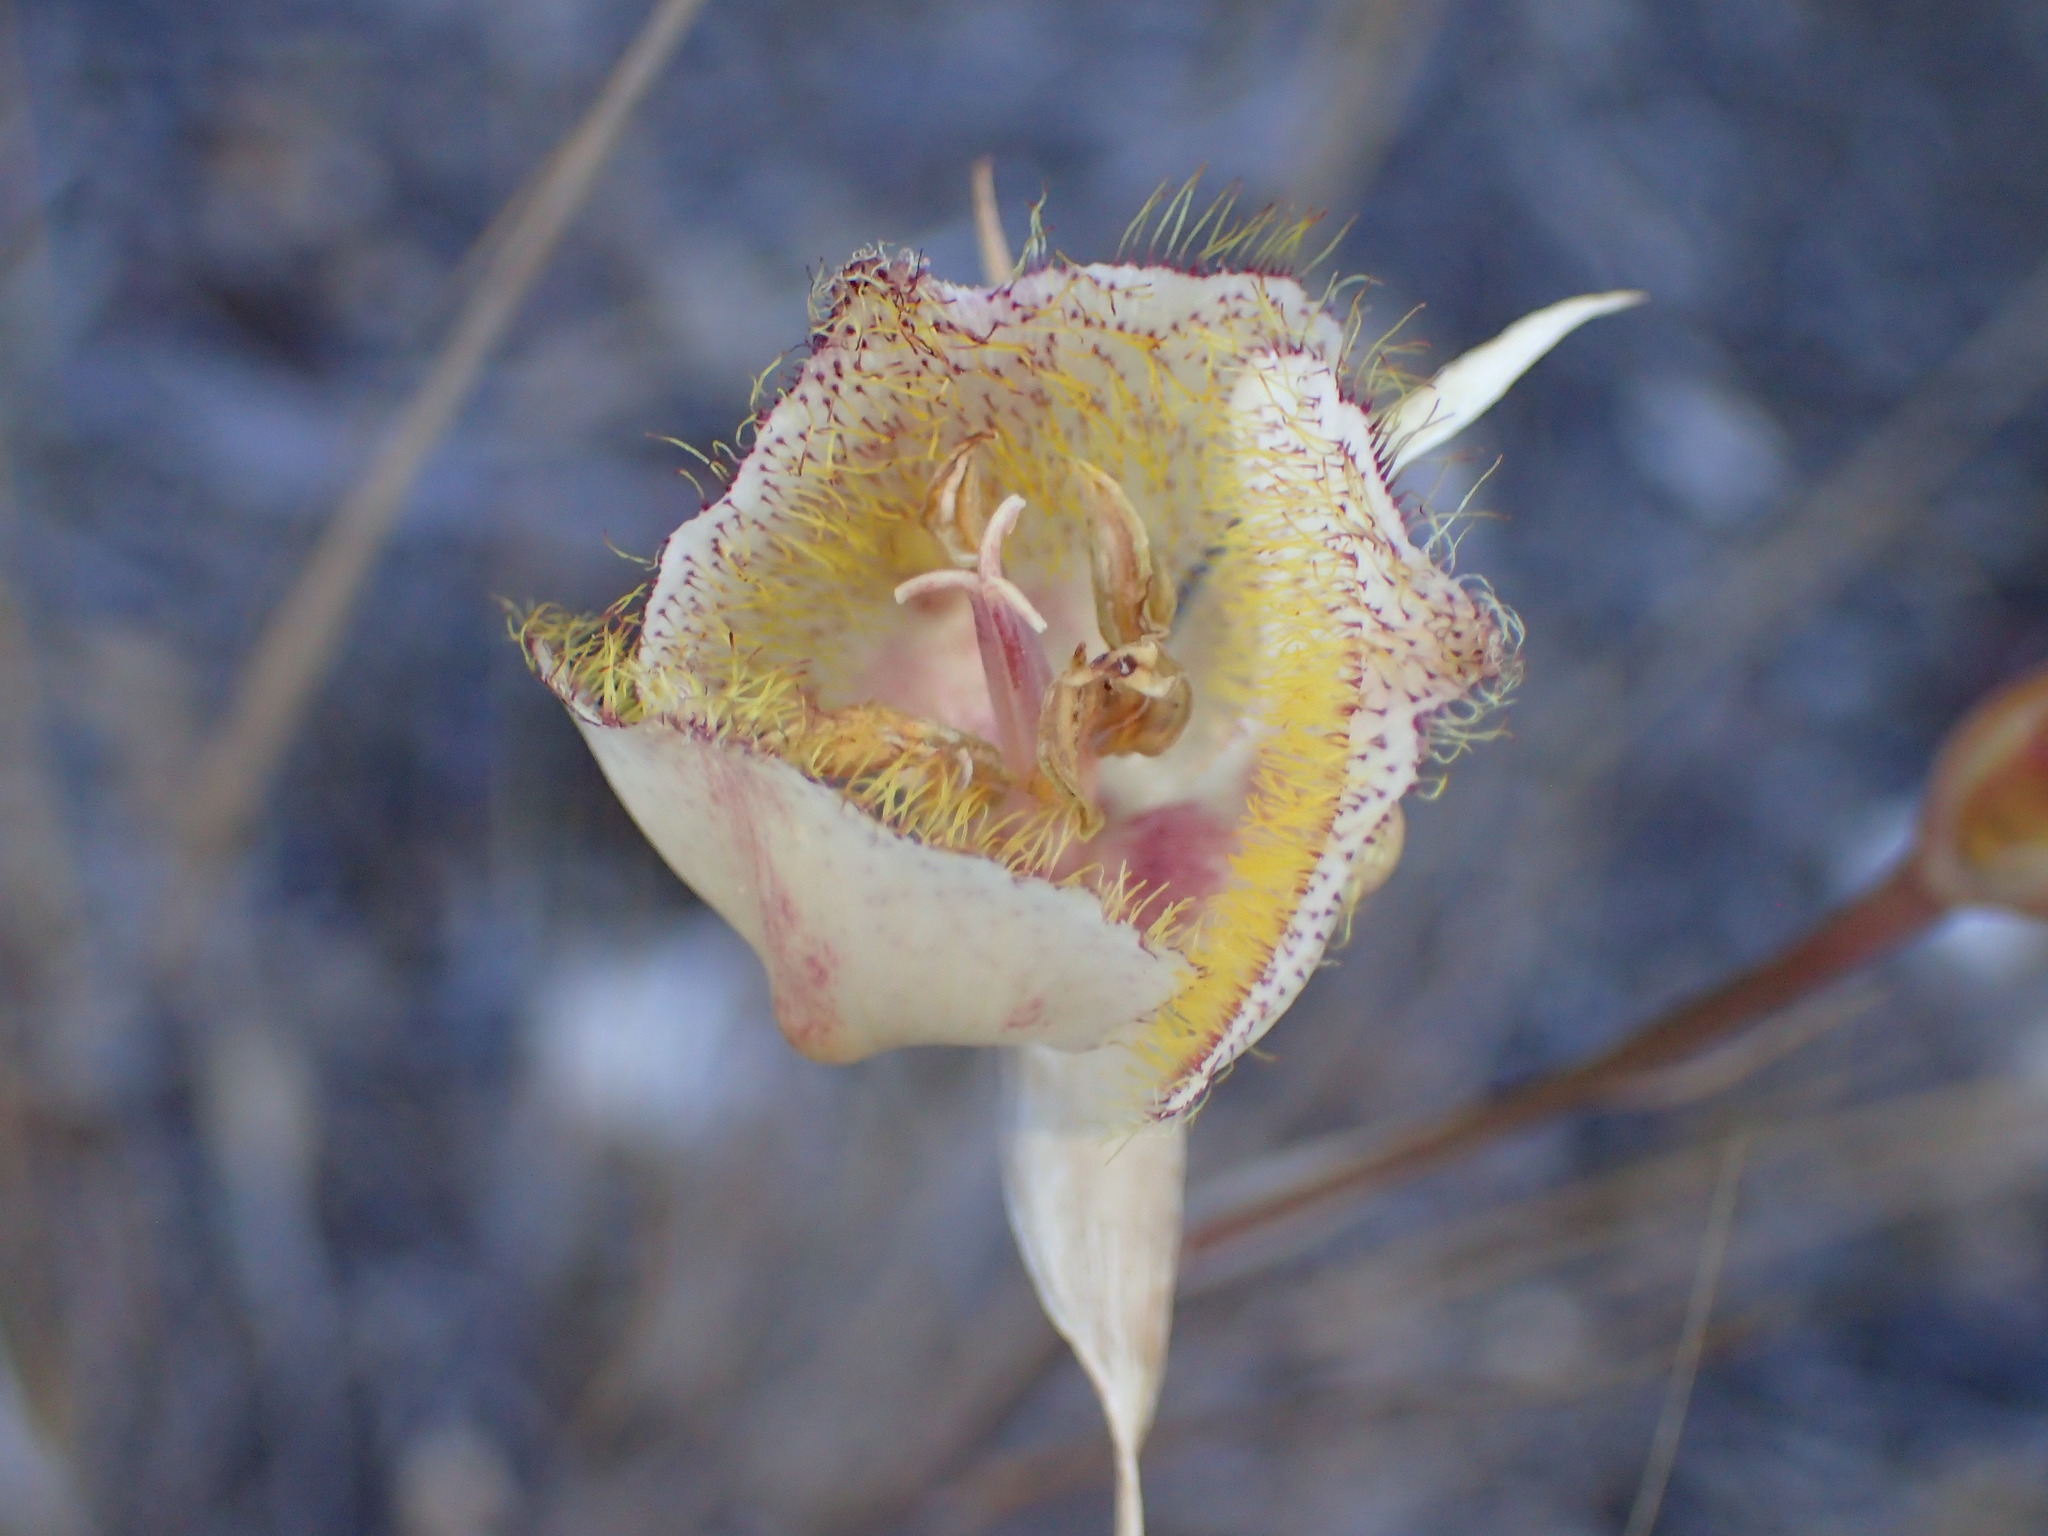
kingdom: Plantae
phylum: Tracheophyta
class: Liliopsida
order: Liliales
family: Liliaceae
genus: Calochortus
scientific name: Calochortus fimbriatus
